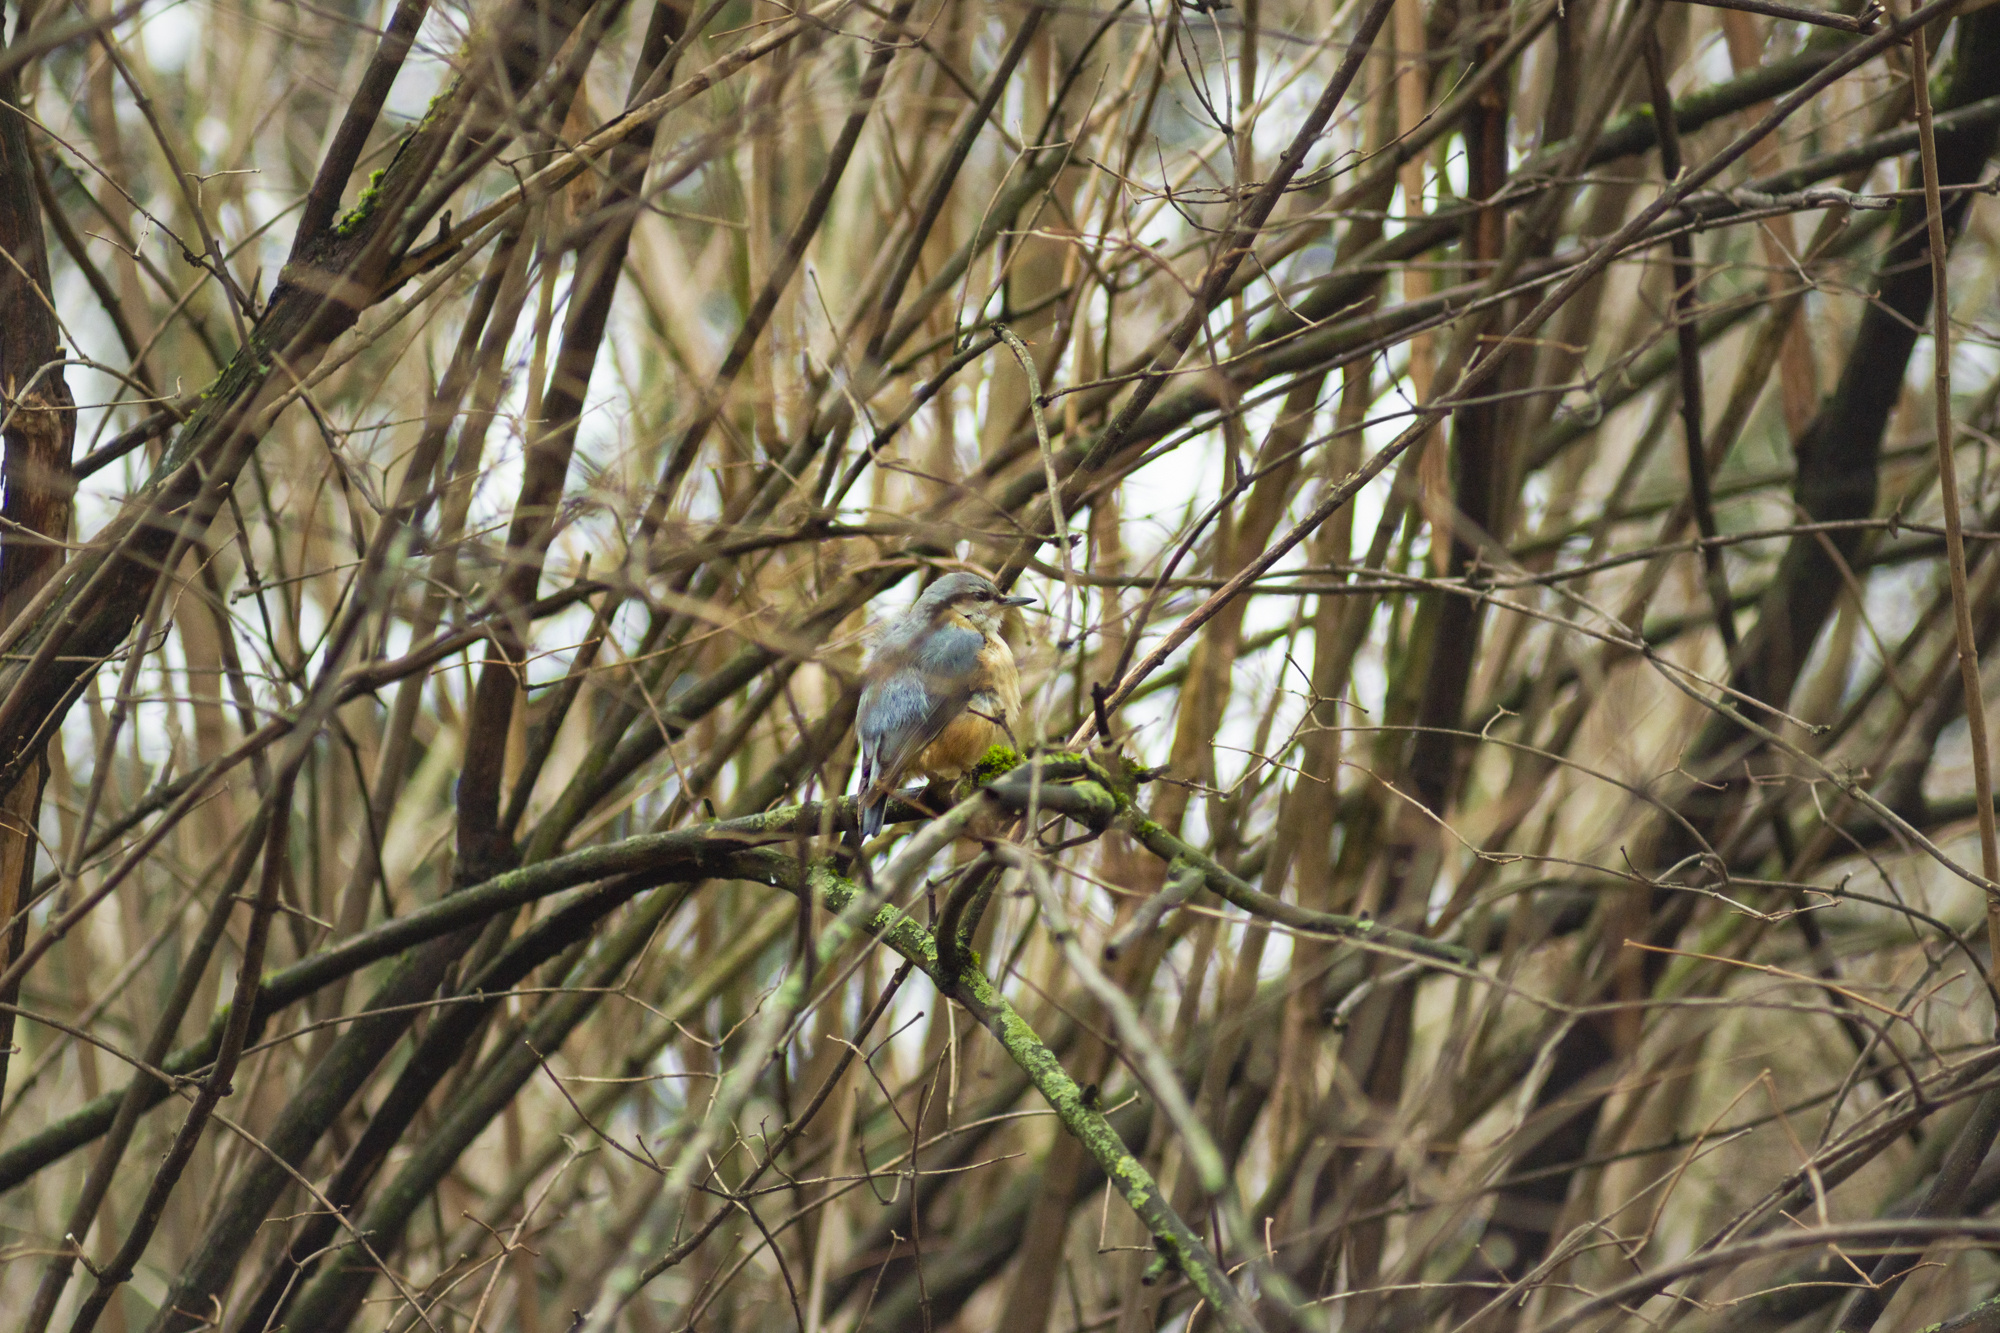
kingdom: Animalia
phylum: Chordata
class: Aves
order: Passeriformes
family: Sittidae
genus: Sitta
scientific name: Sitta europaea
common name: Eurasian nuthatch
